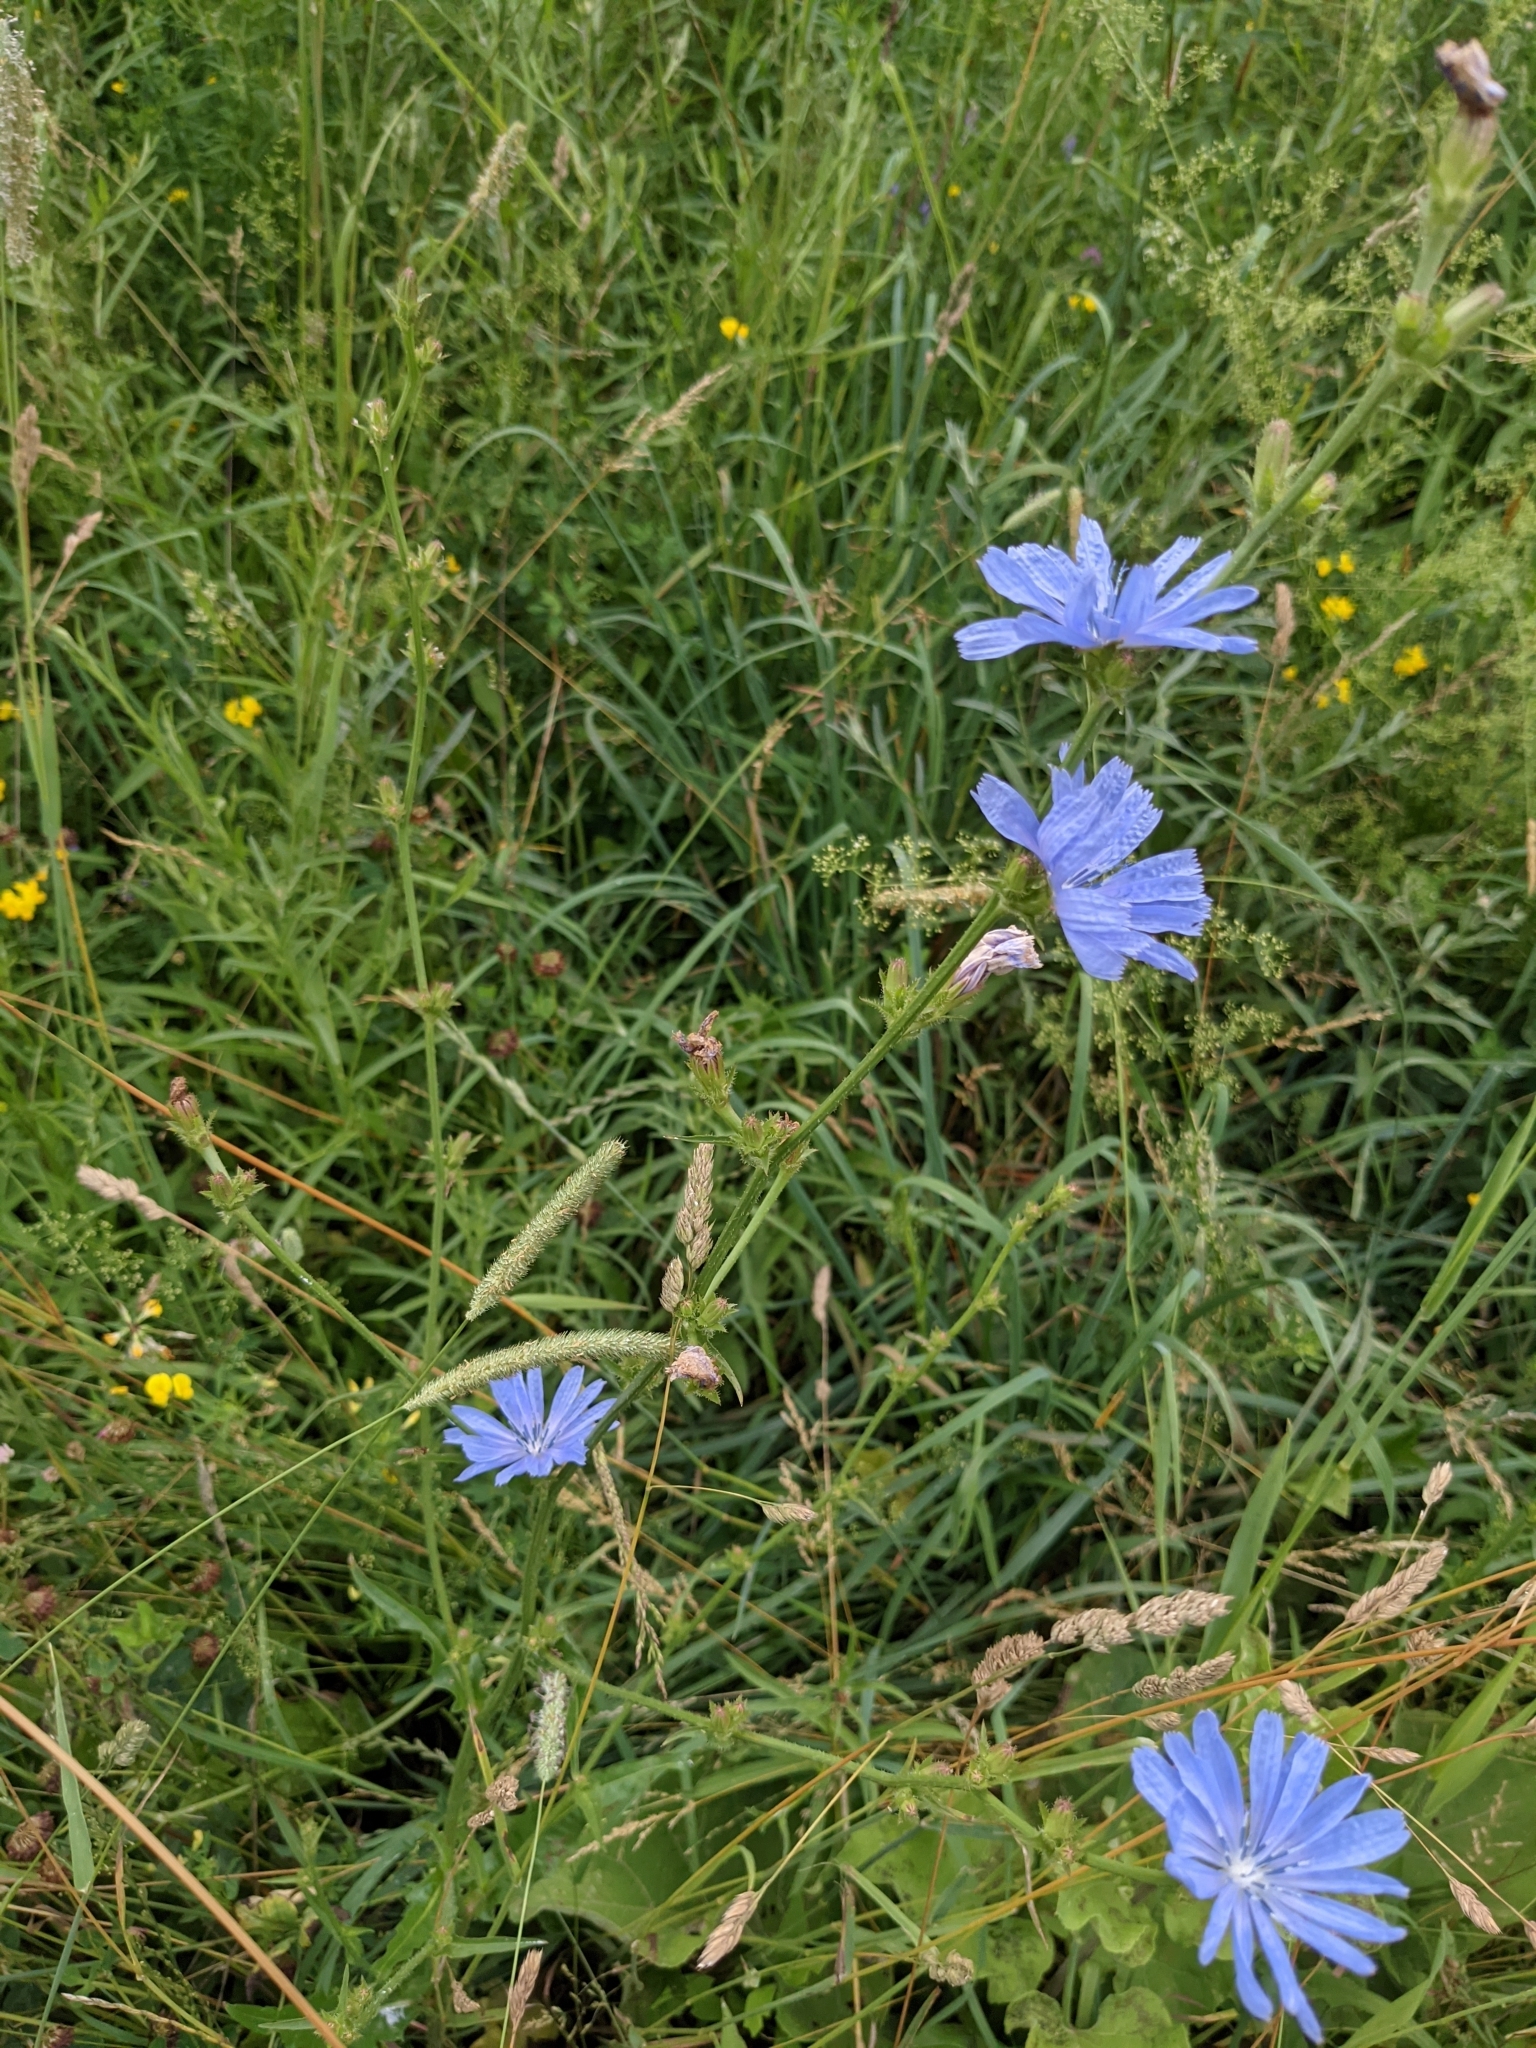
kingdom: Plantae
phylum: Tracheophyta
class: Magnoliopsida
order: Asterales
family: Asteraceae
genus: Cichorium
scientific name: Cichorium intybus
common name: Chicory
